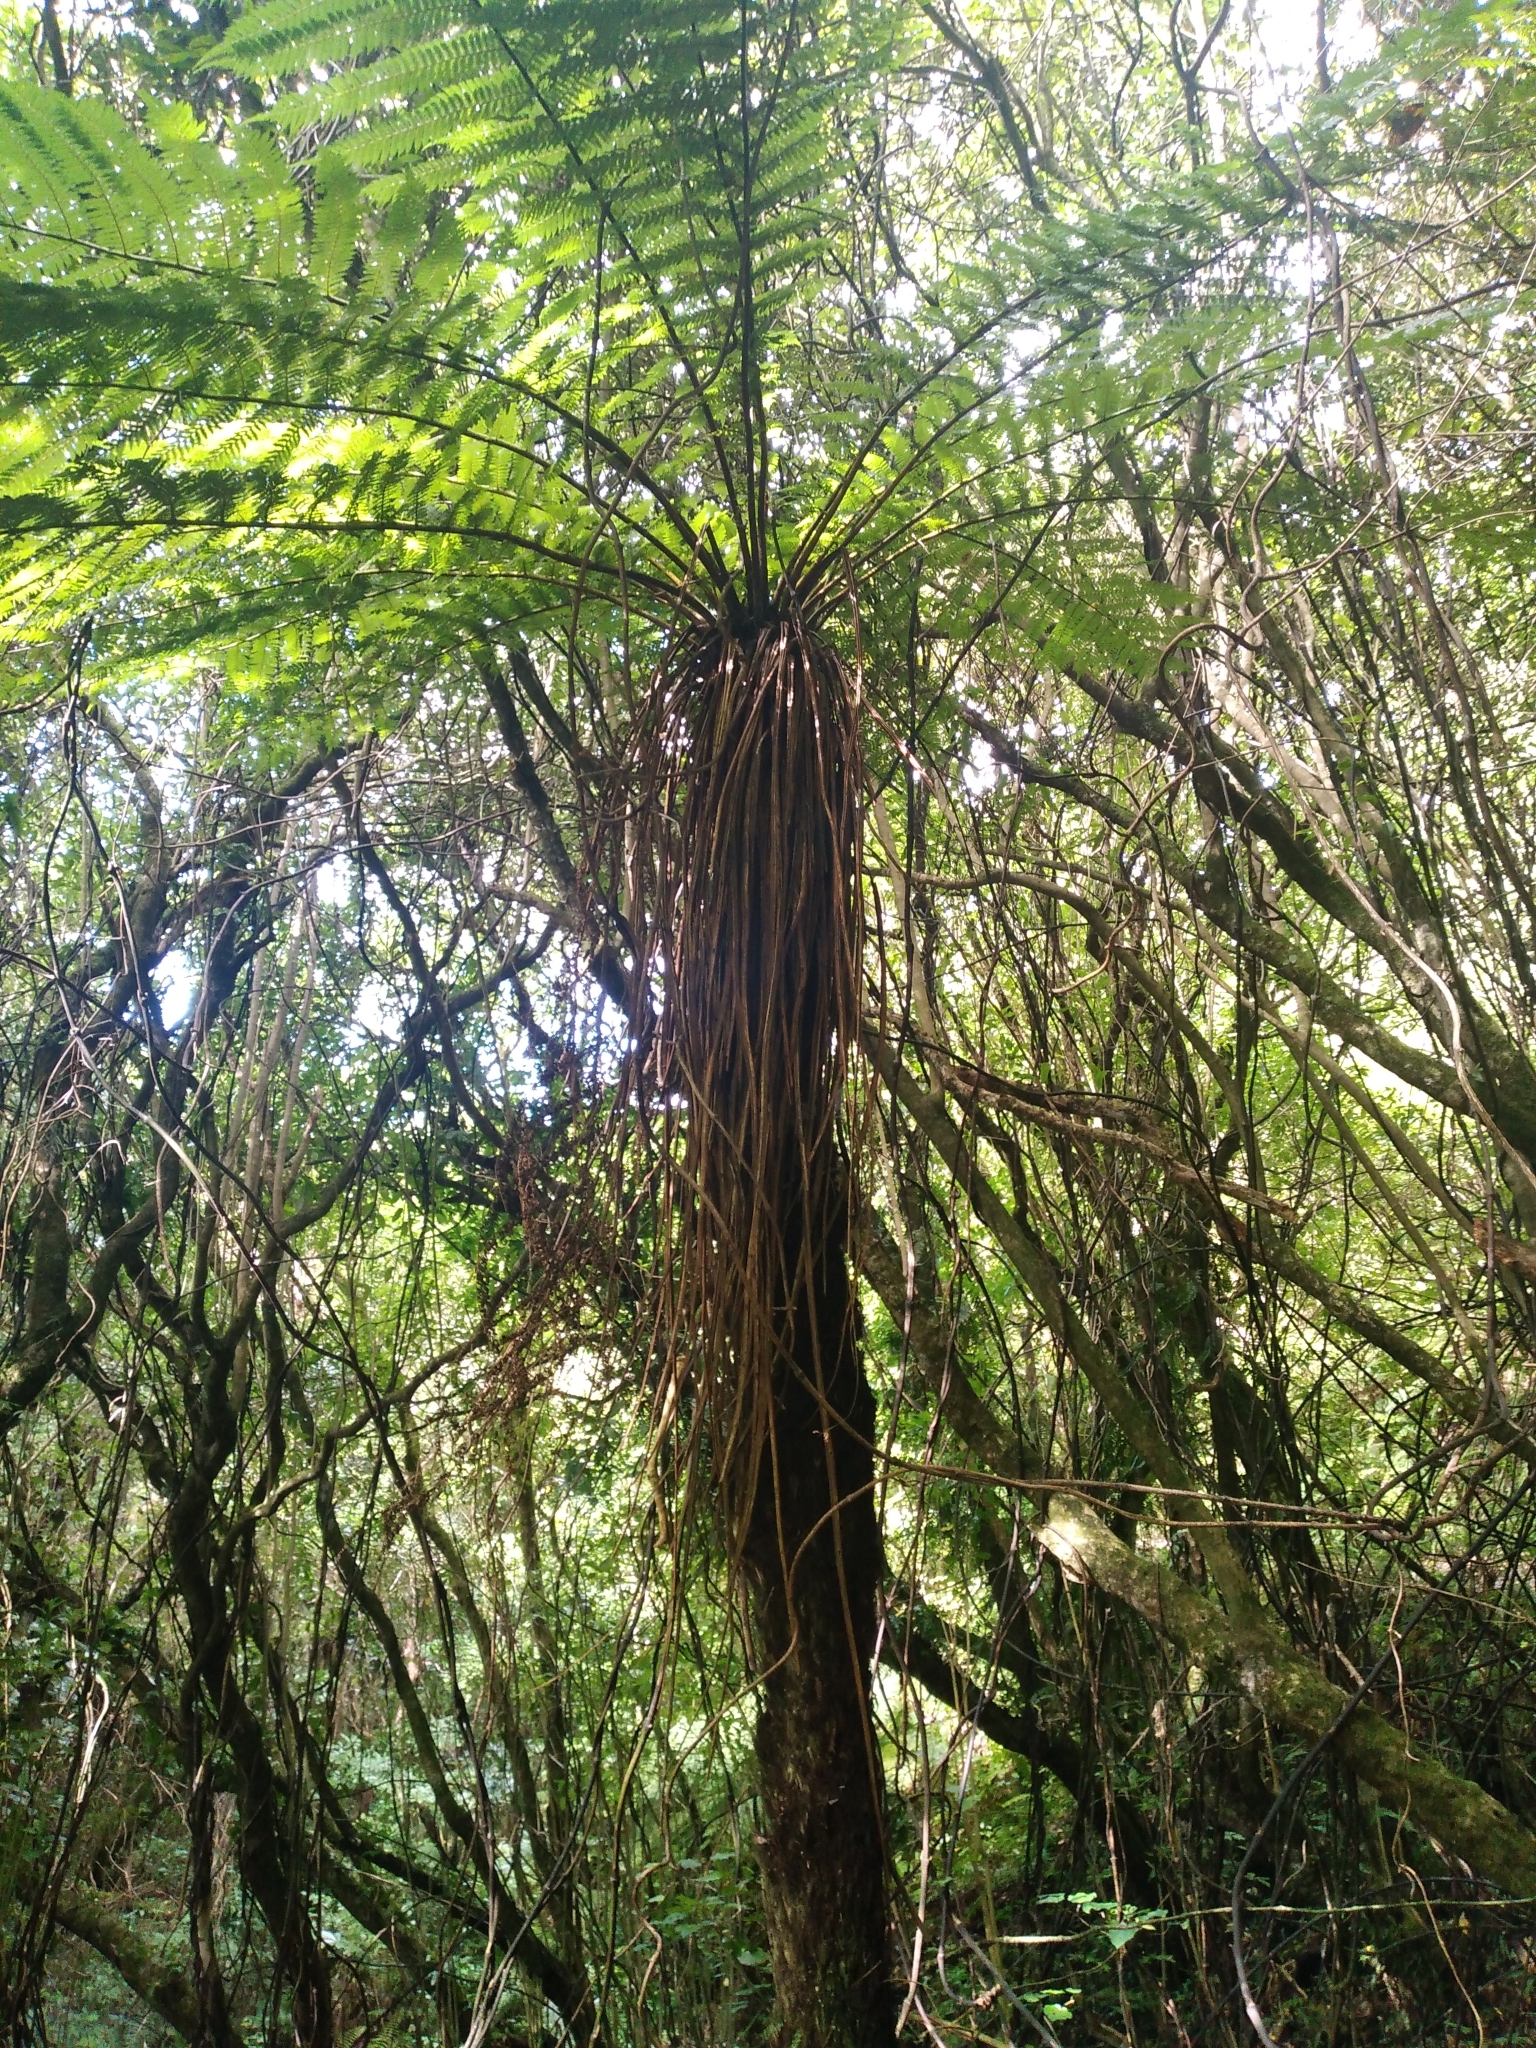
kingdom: Plantae
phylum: Tracheophyta
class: Polypodiopsida
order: Cyatheales
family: Cyatheaceae
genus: Alsophila
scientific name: Alsophila smithii
